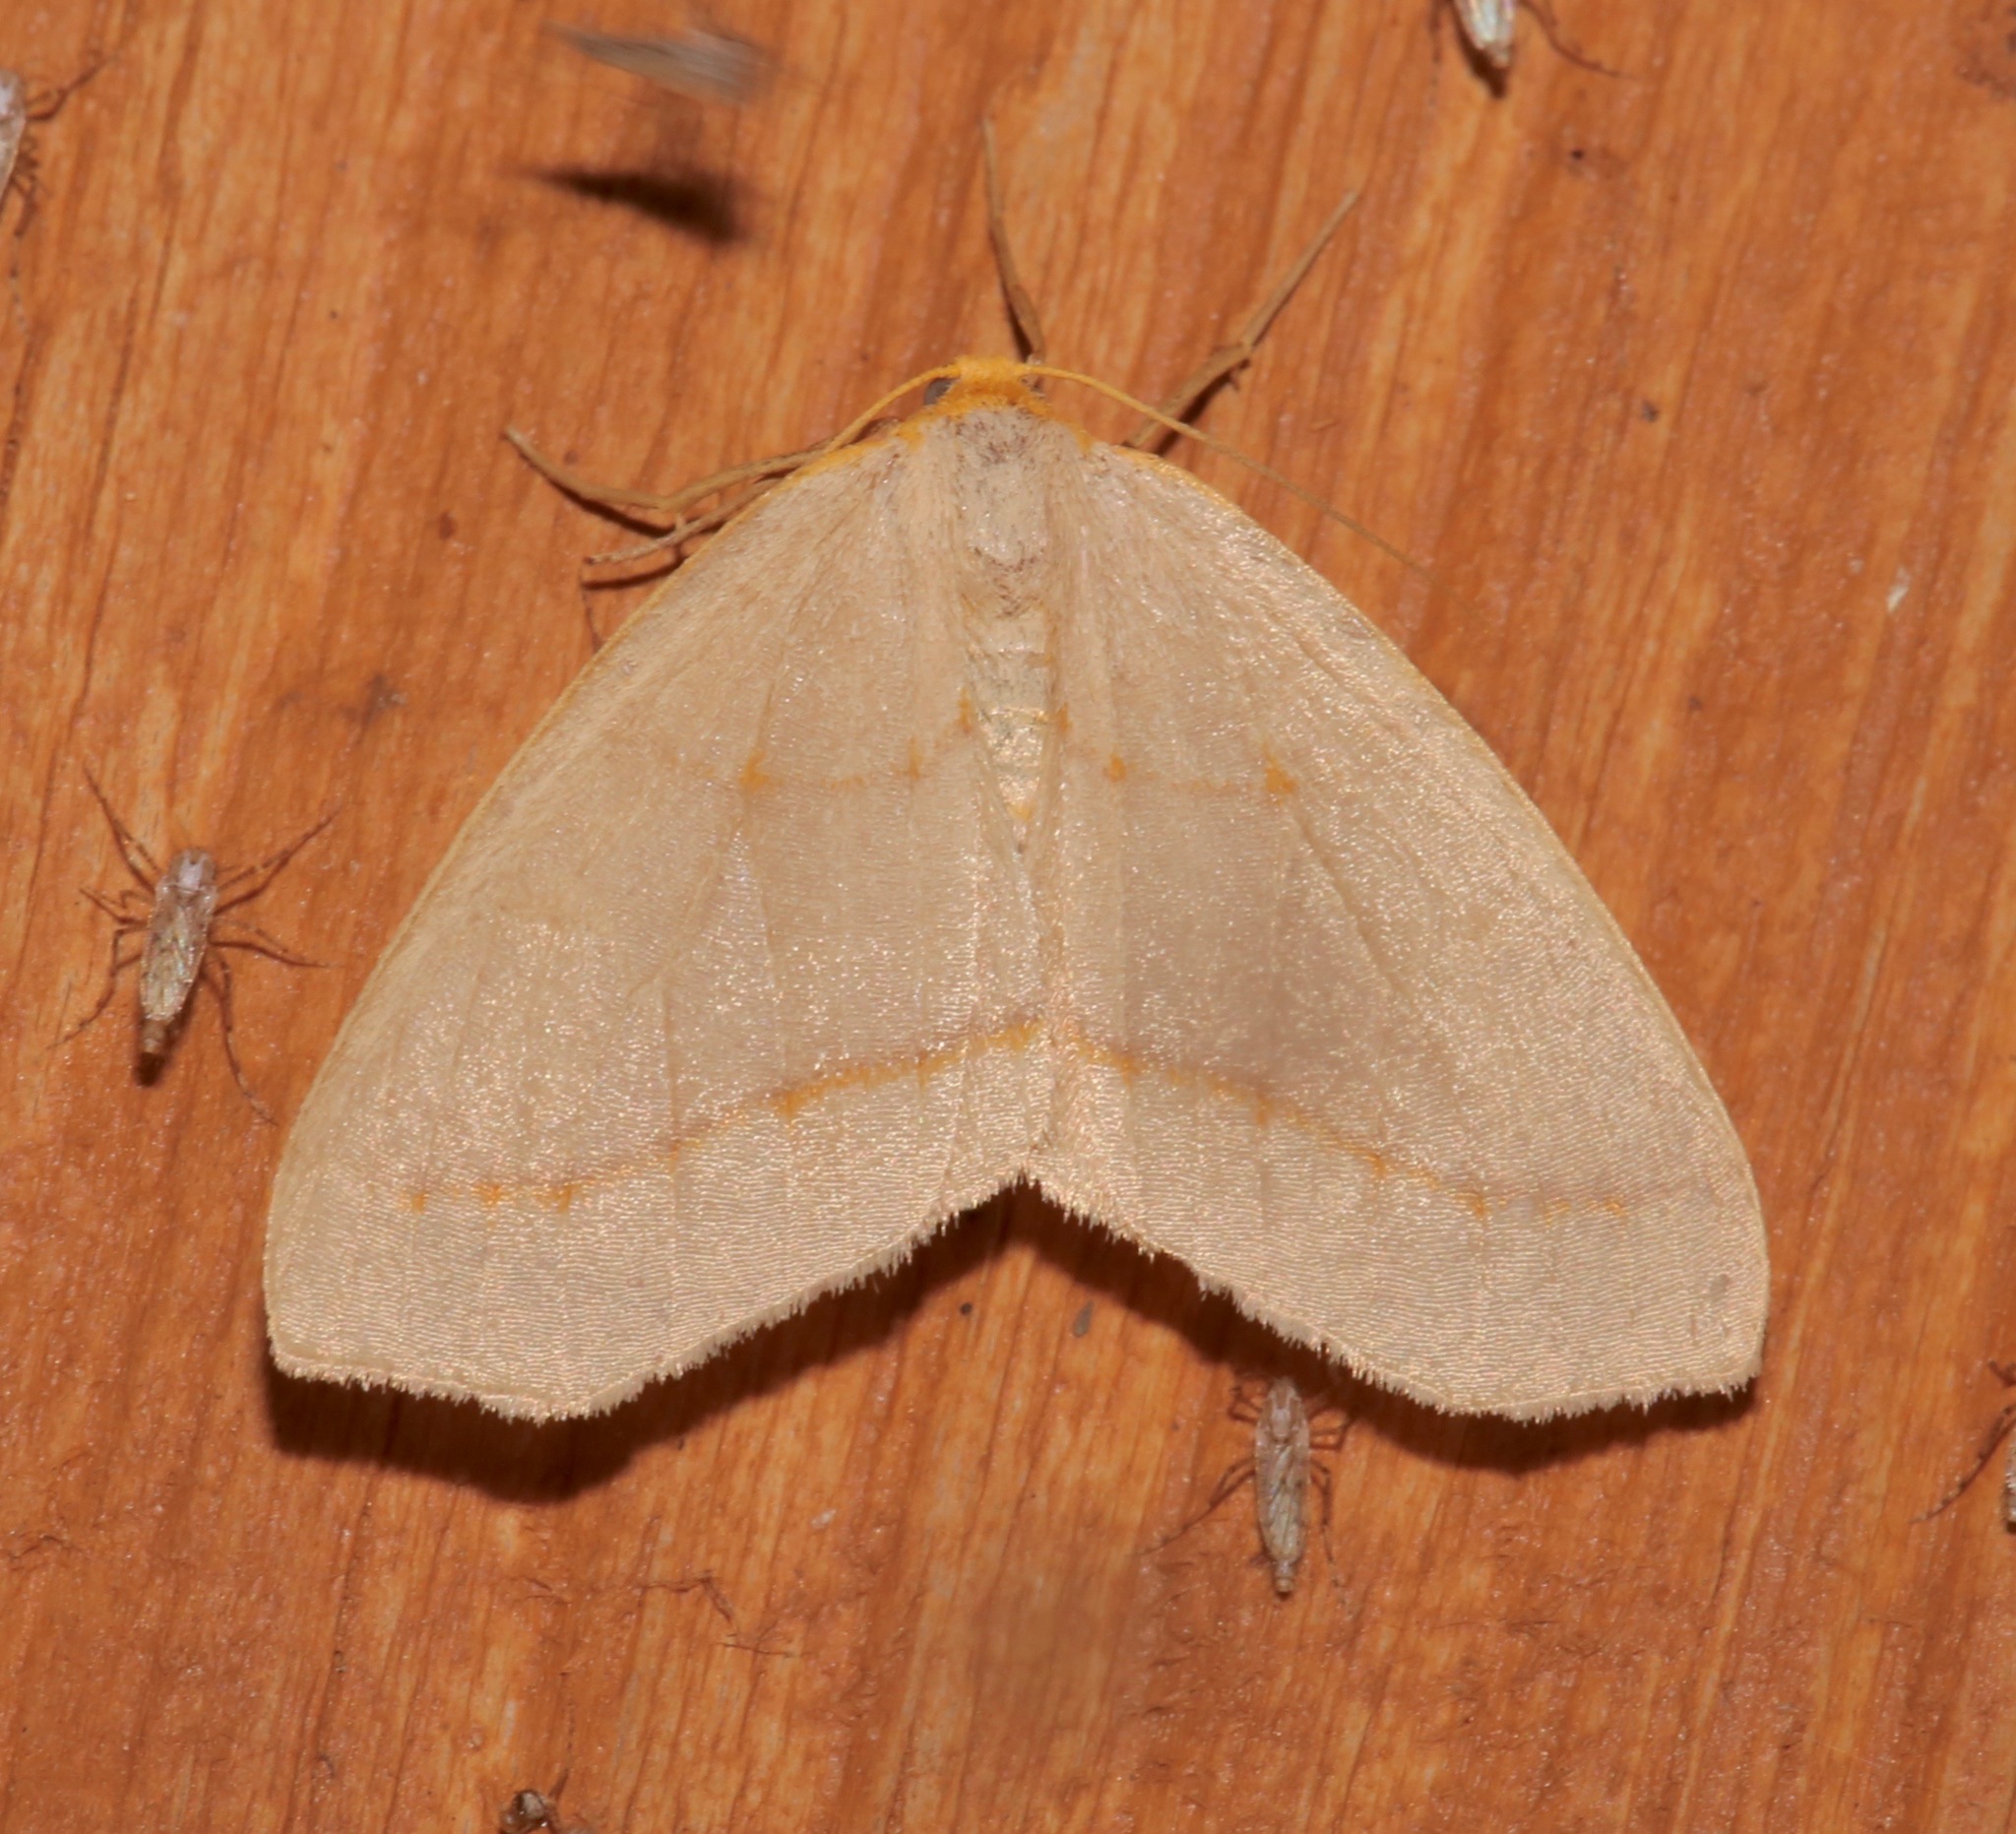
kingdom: Animalia
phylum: Arthropoda
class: Insecta
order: Lepidoptera
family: Geometridae
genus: Lambdina
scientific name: Lambdina pultaria
